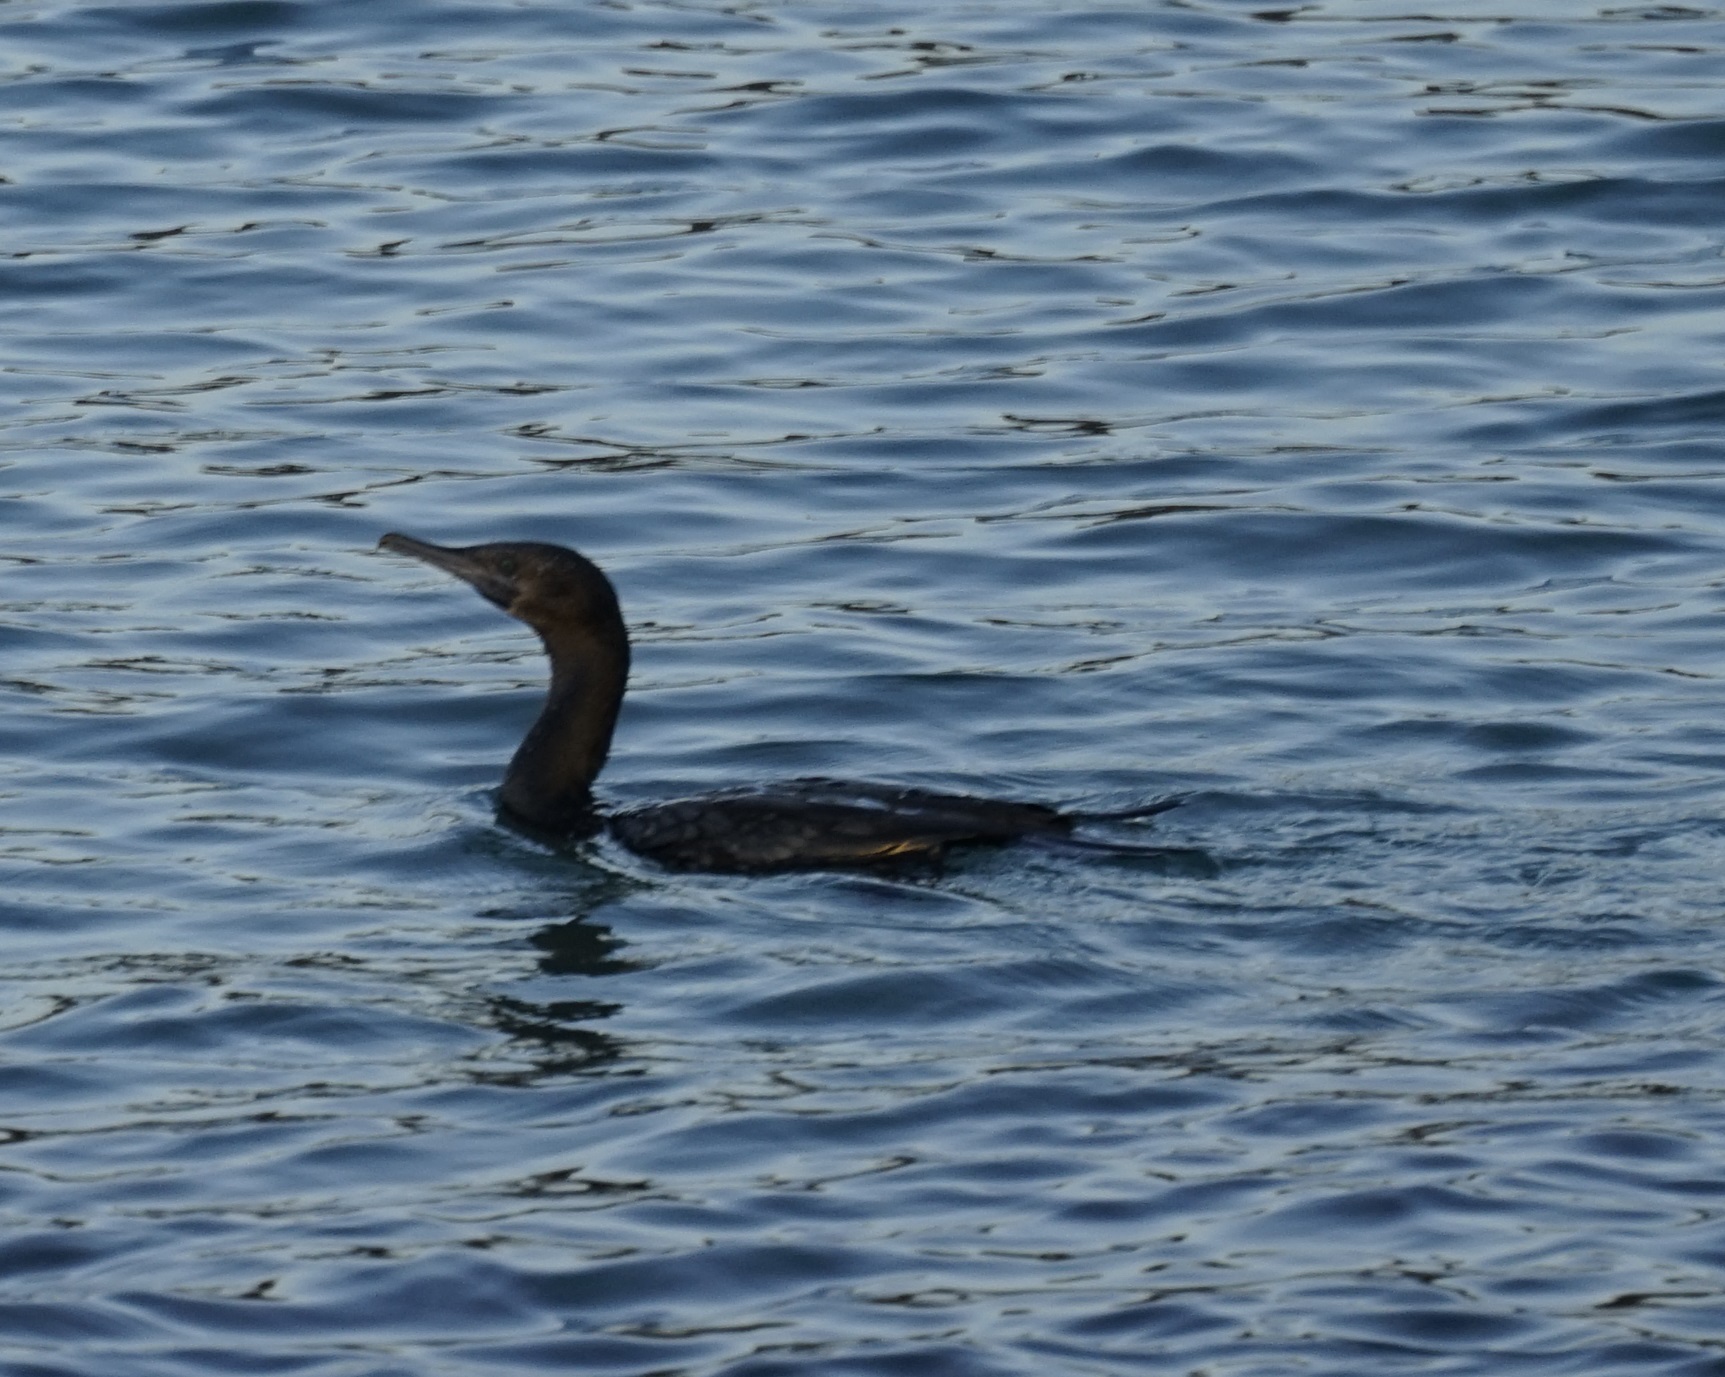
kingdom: Animalia
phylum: Chordata
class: Aves
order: Suliformes
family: Phalacrocoracidae
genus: Phalacrocorax
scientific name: Phalacrocorax sulcirostris
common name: Little black cormorant
